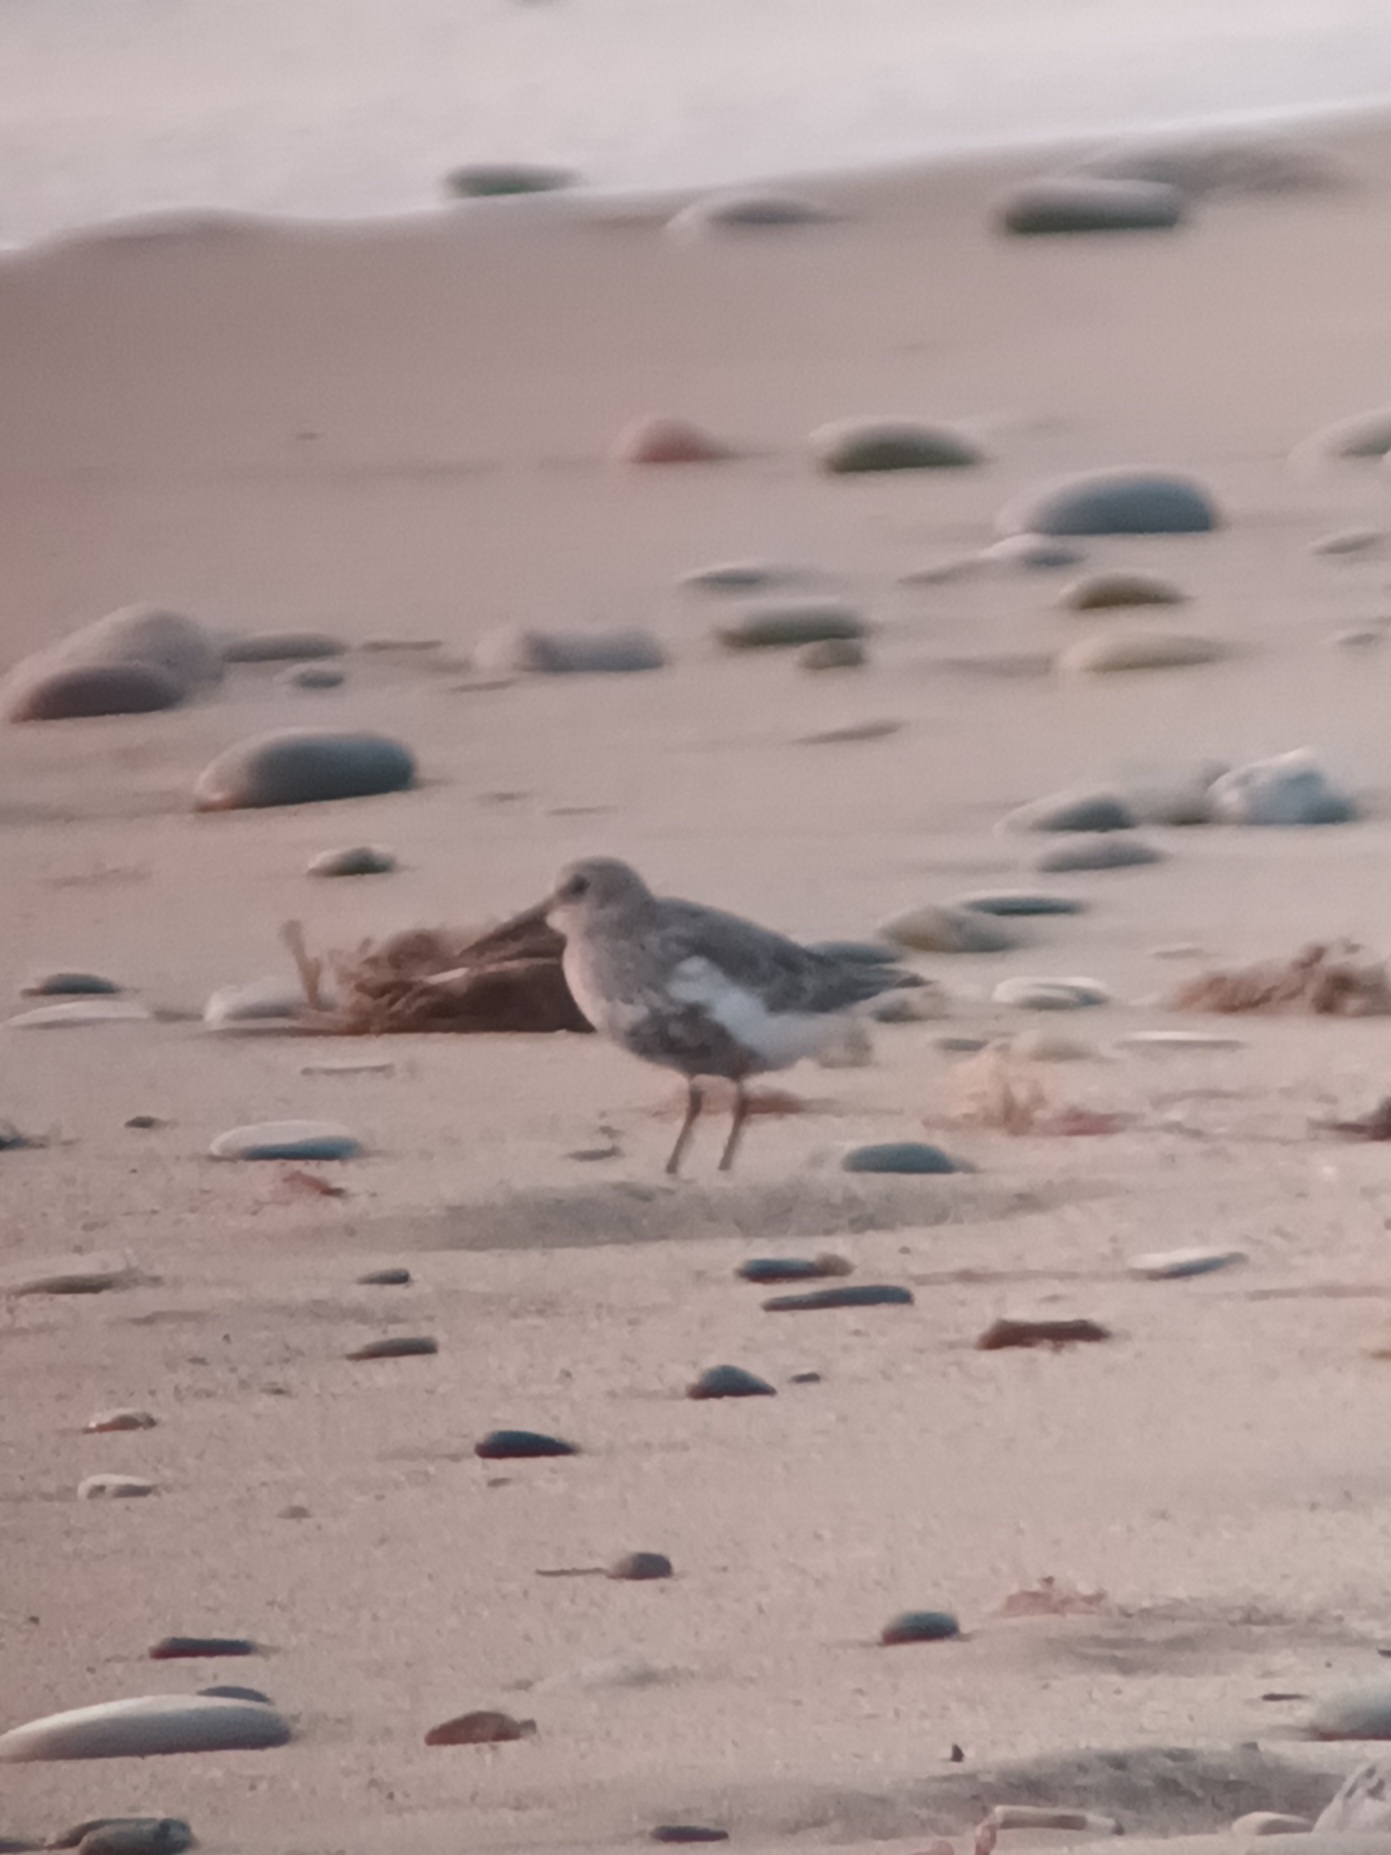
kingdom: Animalia
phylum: Chordata
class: Aves
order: Charadriiformes
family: Scolopacidae
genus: Calidris
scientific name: Calidris alpina
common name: Dunlin
